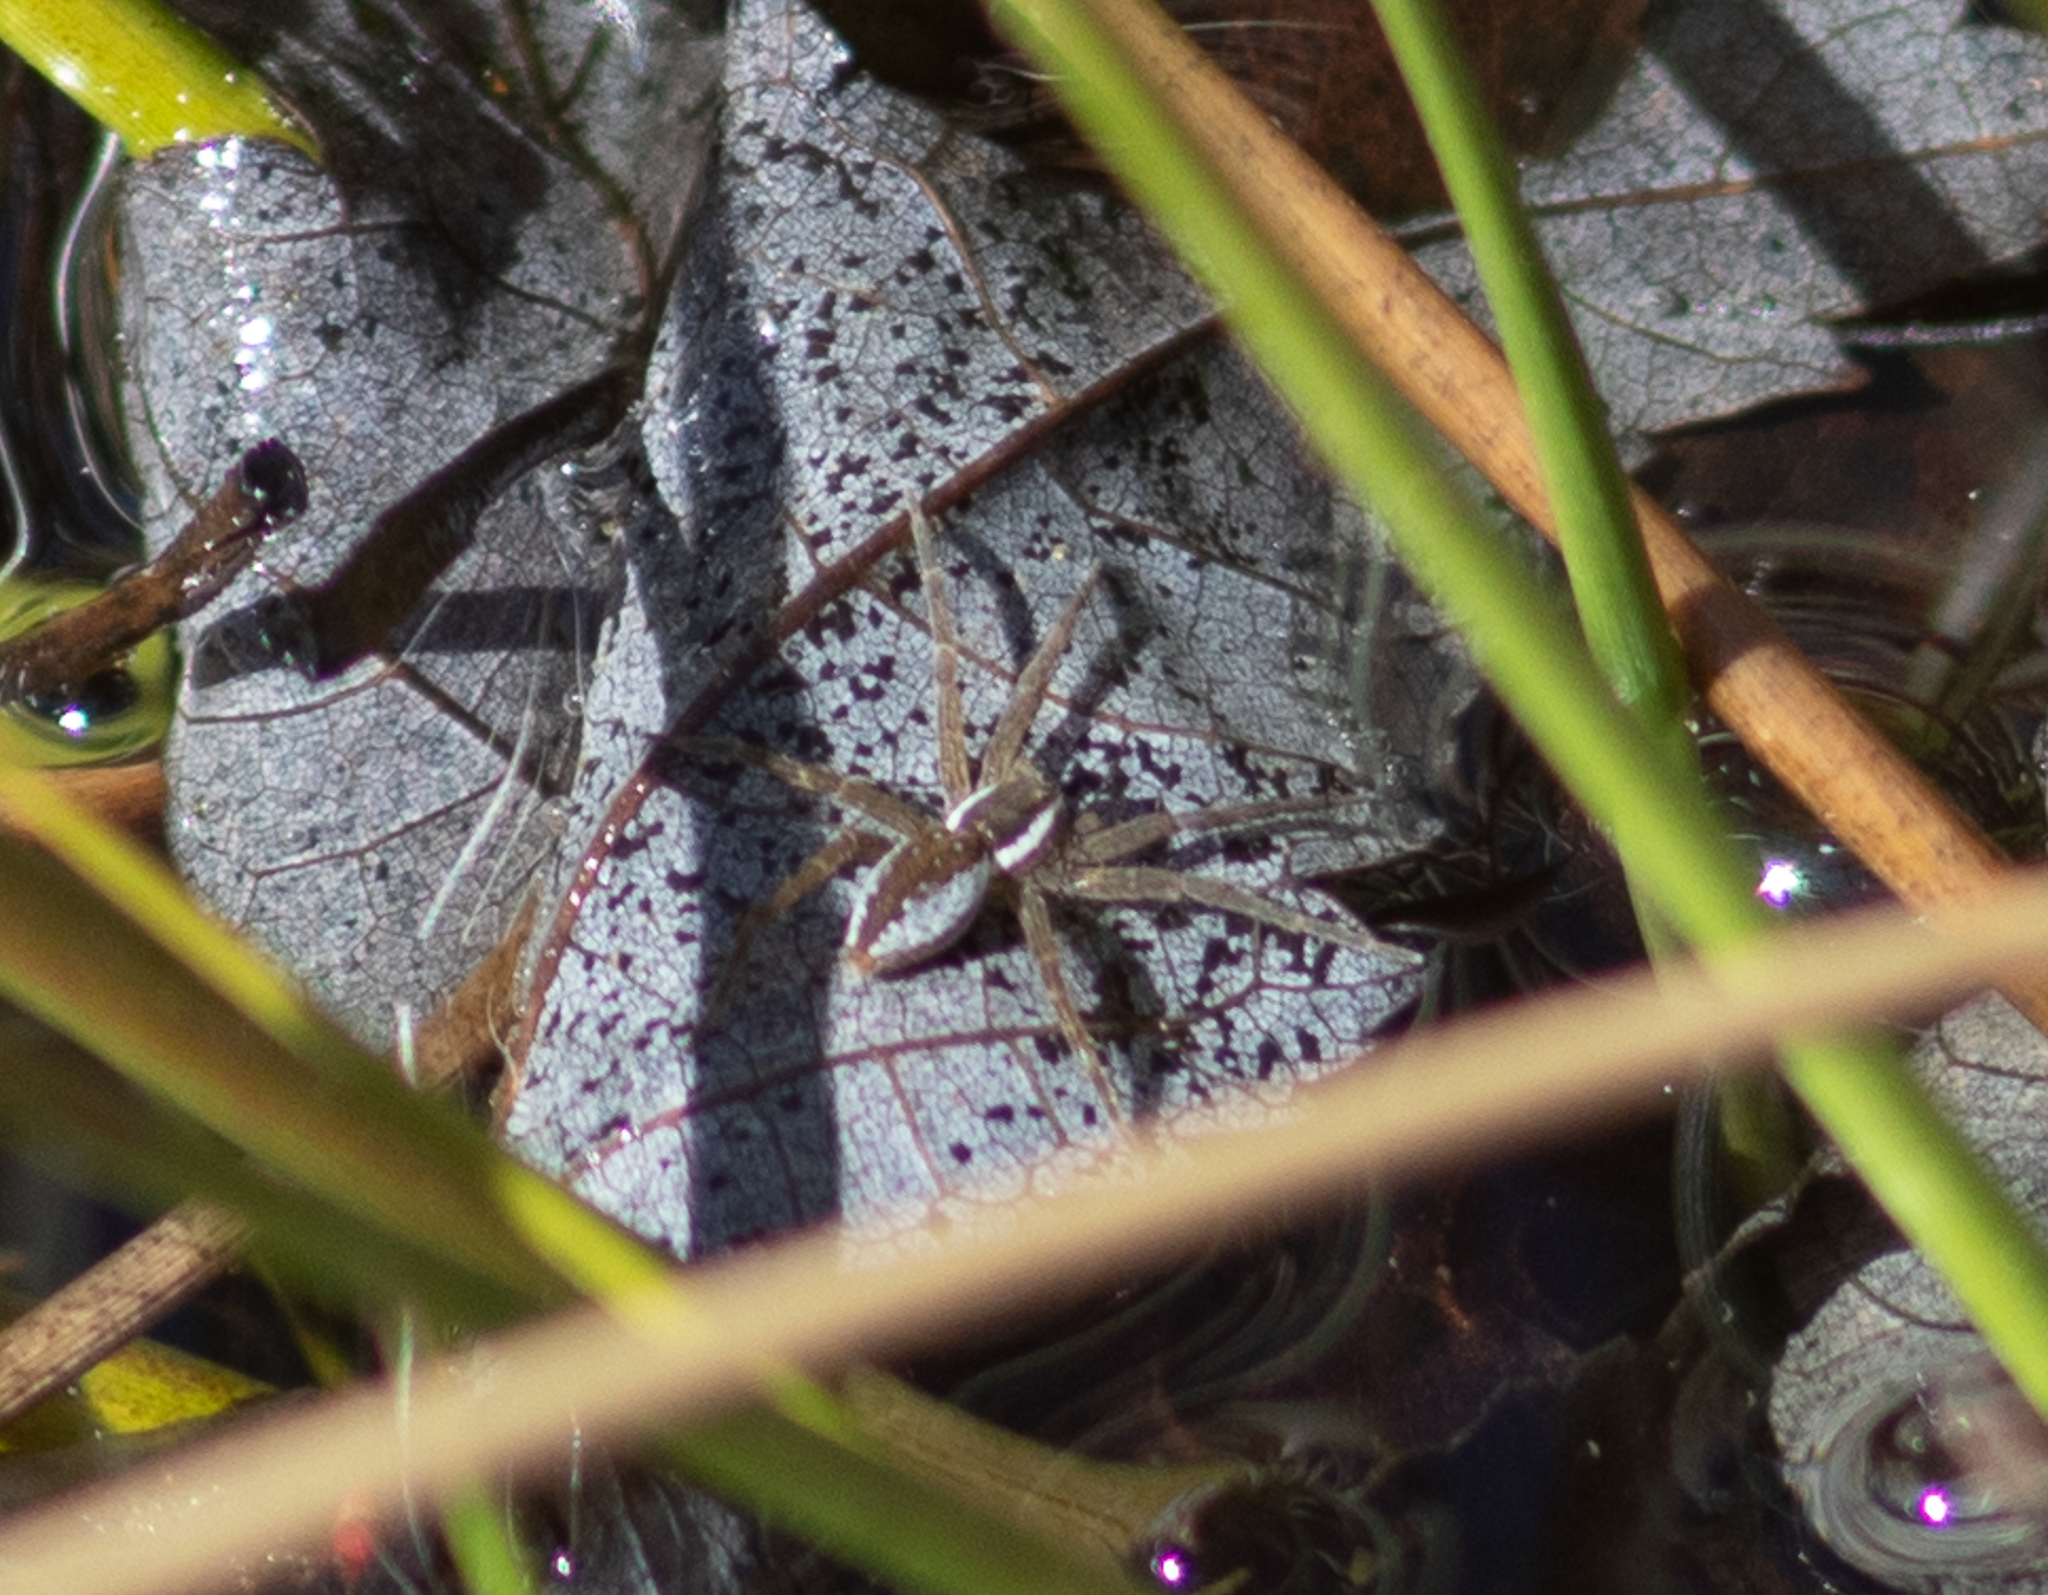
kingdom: Animalia
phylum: Arthropoda
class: Arachnida
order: Araneae
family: Pisauridae
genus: Dolomedes
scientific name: Dolomedes triton
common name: Six-spotted fishing spider
